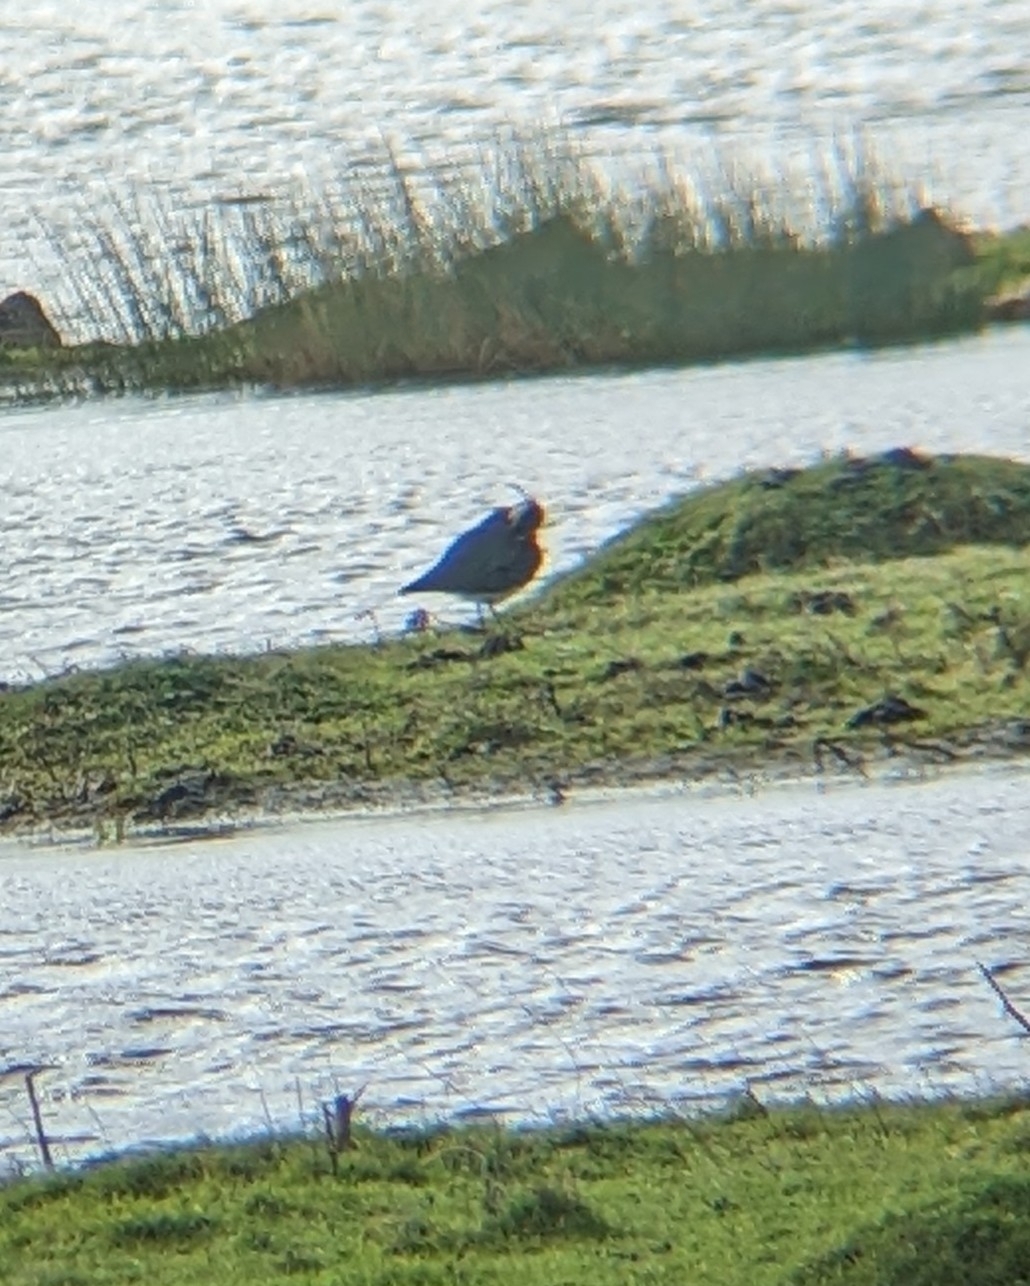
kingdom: Animalia
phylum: Chordata
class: Aves
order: Charadriiformes
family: Charadriidae
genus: Vanellus
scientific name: Vanellus vanellus
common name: Northern lapwing
